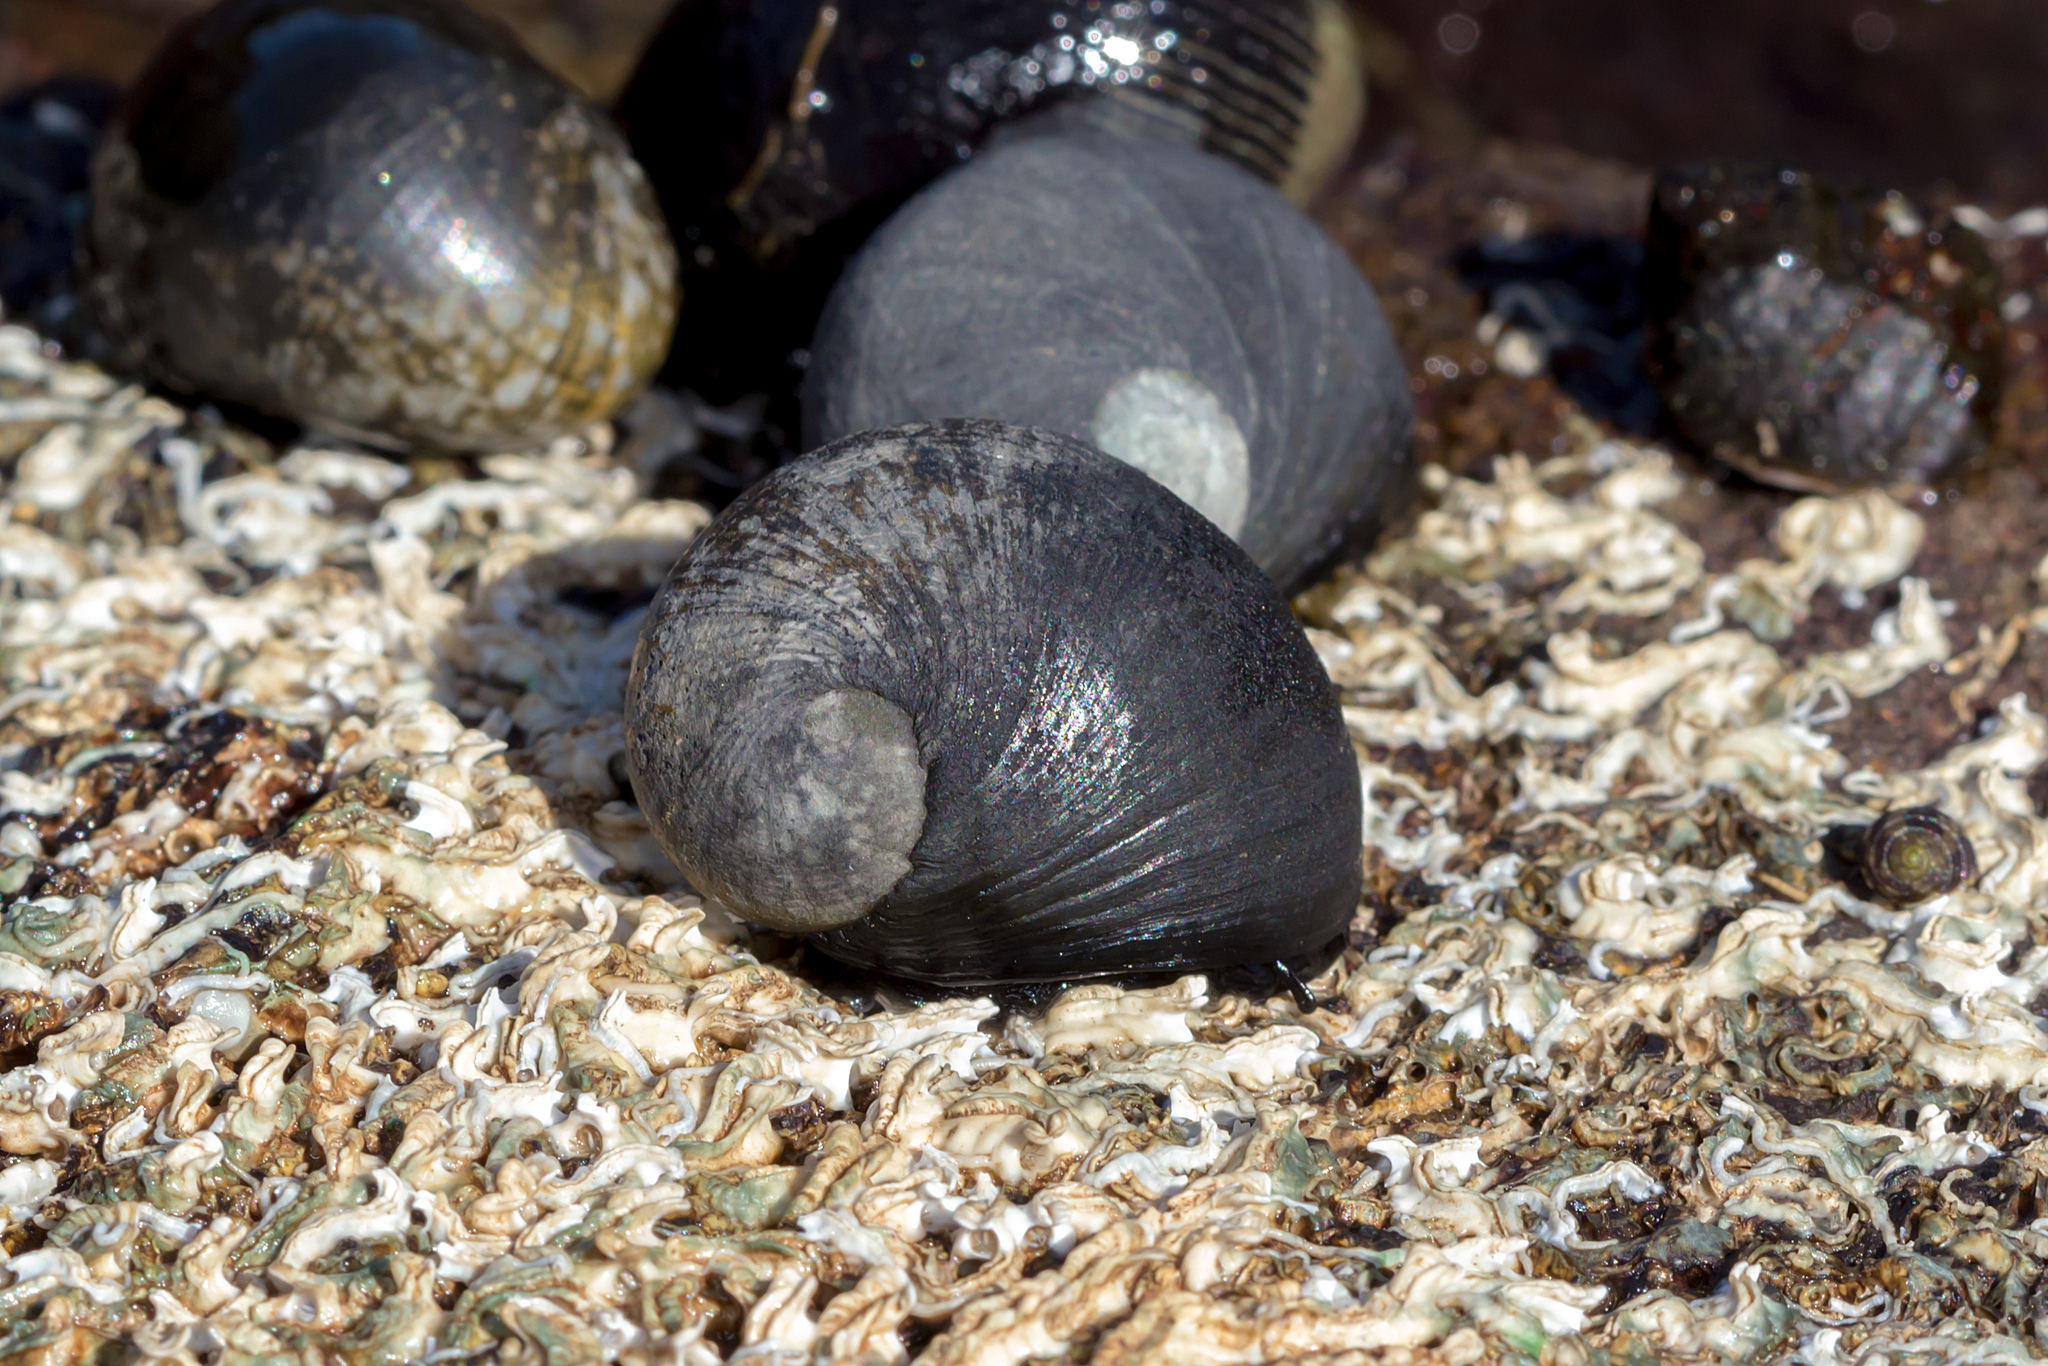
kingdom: Animalia
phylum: Mollusca
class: Gastropoda
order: Cycloneritida
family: Neritidae
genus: Nerita
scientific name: Nerita atramentosa
